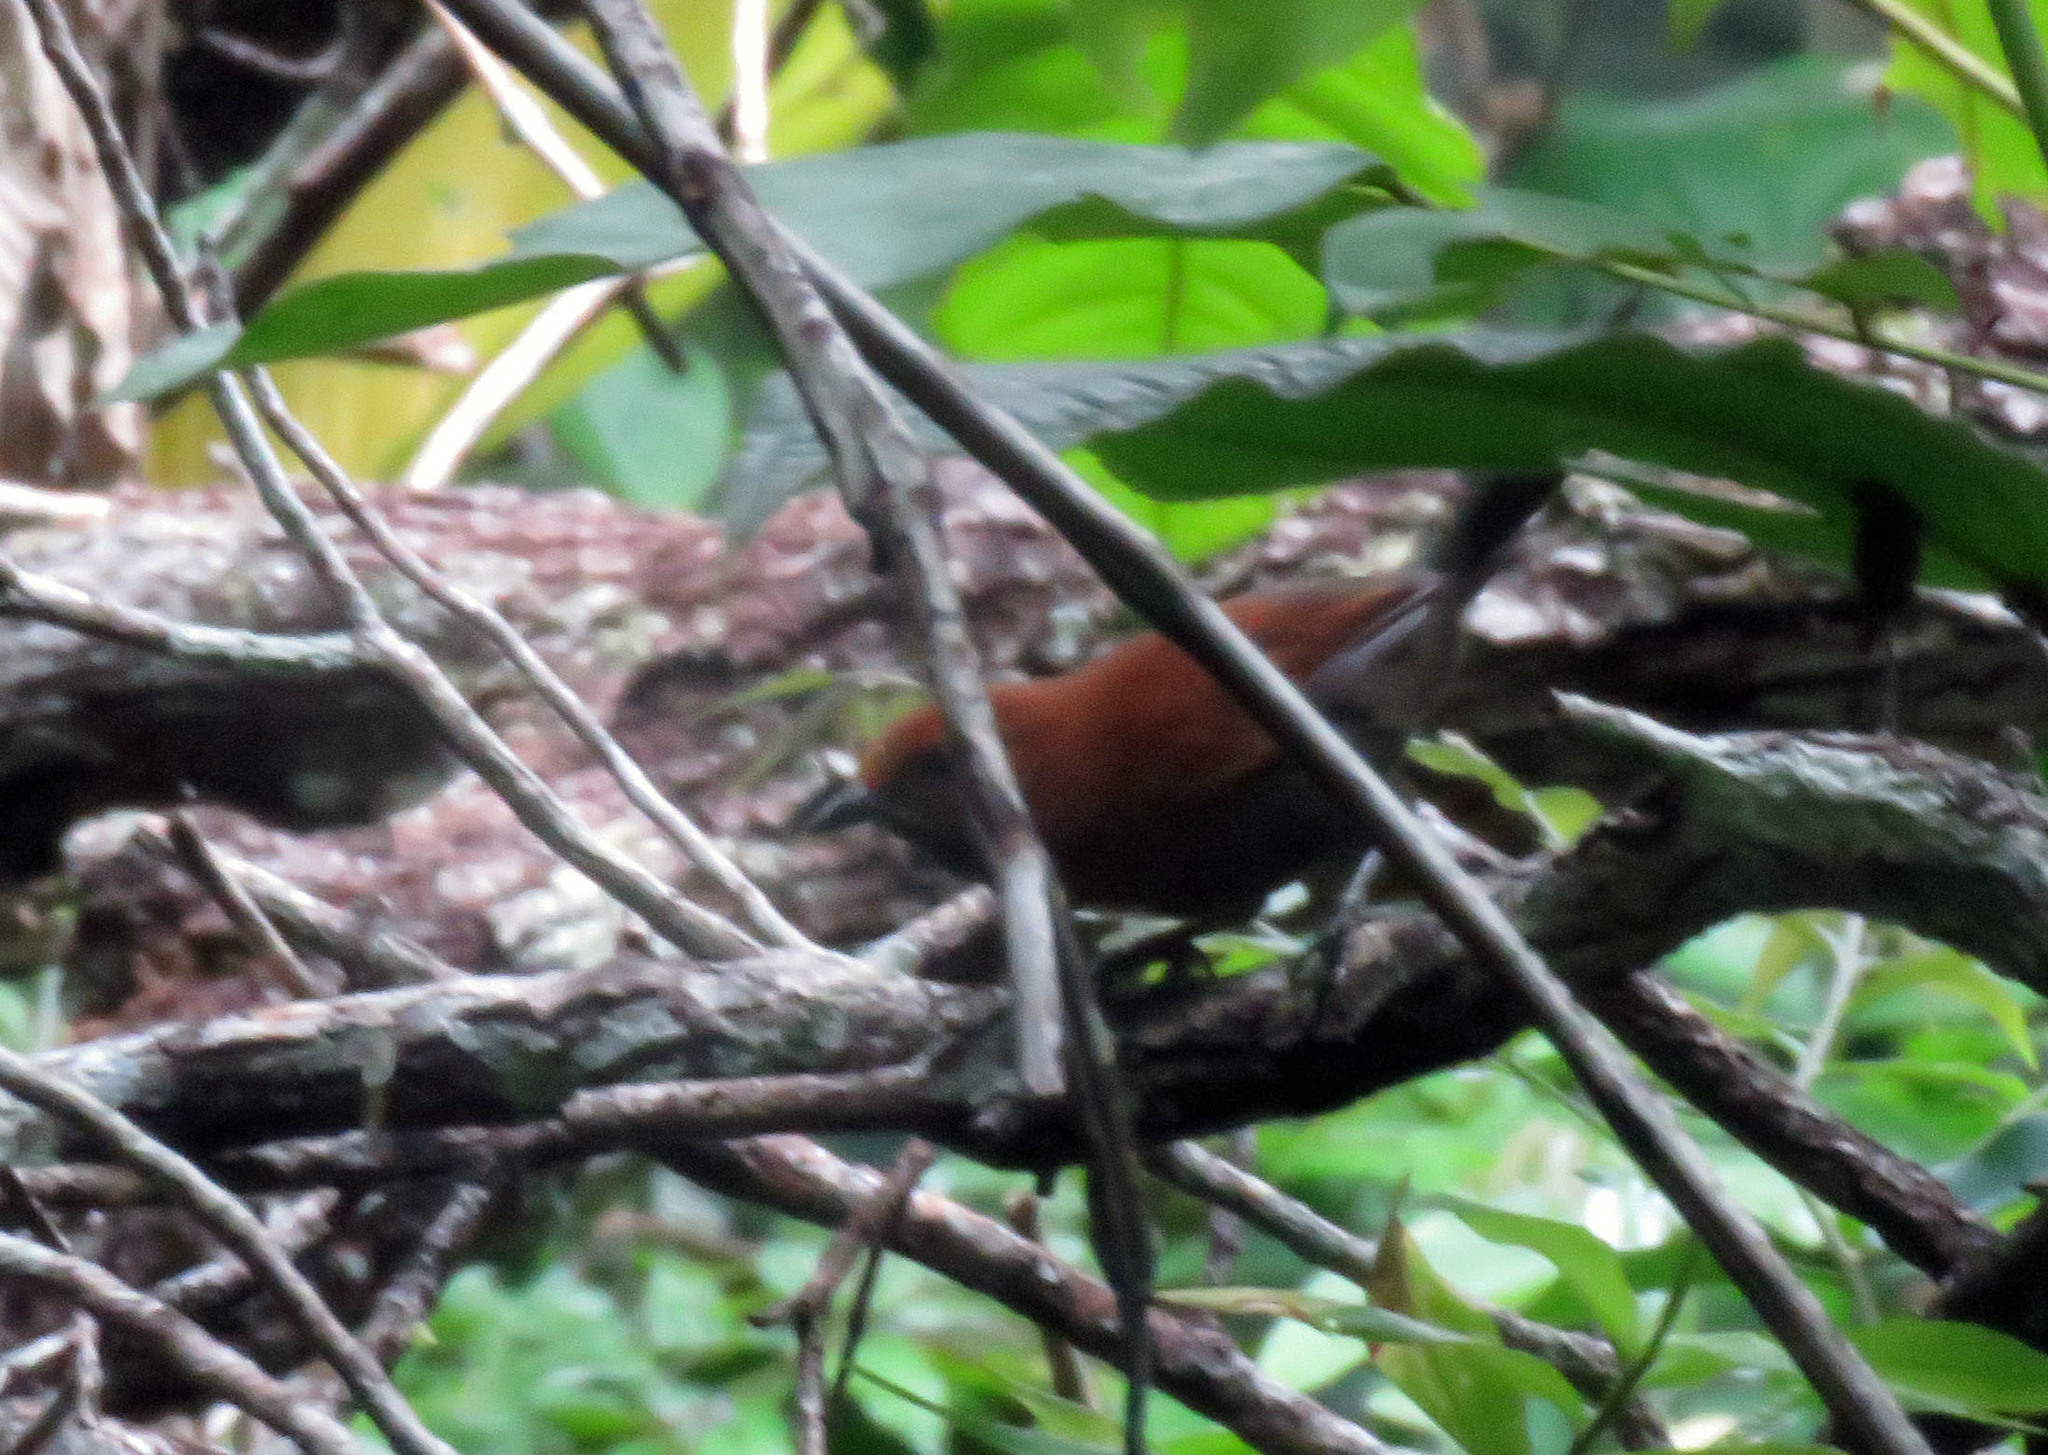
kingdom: Animalia
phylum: Chordata
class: Aves
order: Passeriformes
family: Furnariidae
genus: Synallaxis
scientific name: Synallaxis rutilans
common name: Ruddy spinetail
